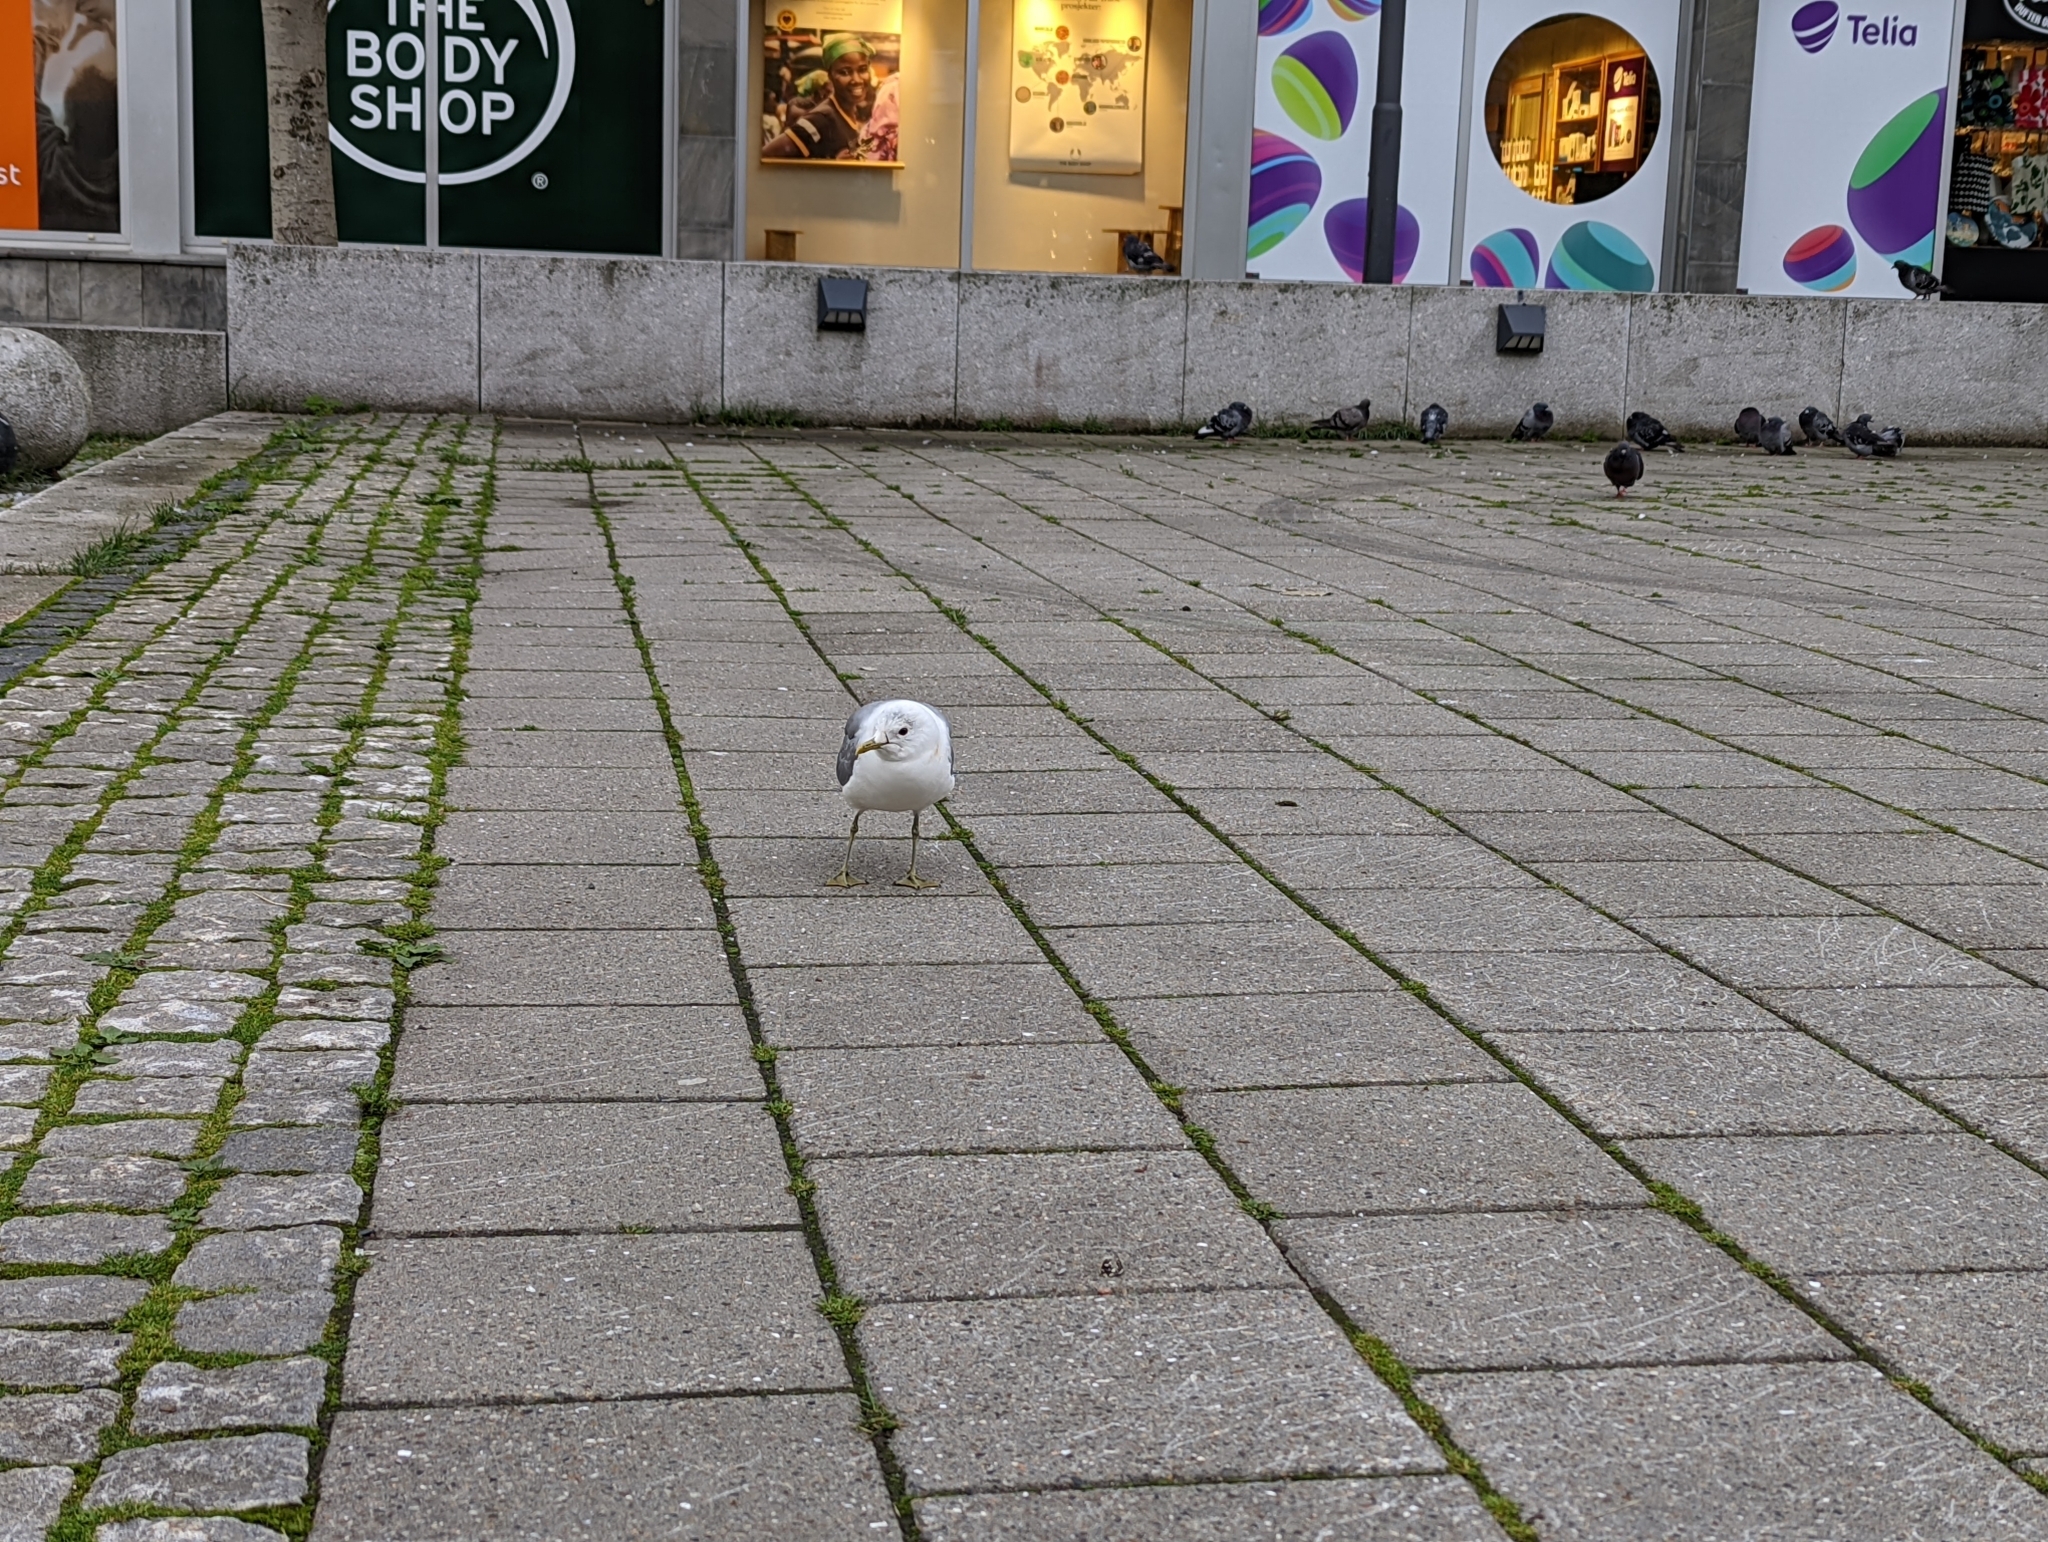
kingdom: Animalia
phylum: Chordata
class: Aves
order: Charadriiformes
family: Laridae
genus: Larus
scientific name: Larus canus
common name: Mew gull
